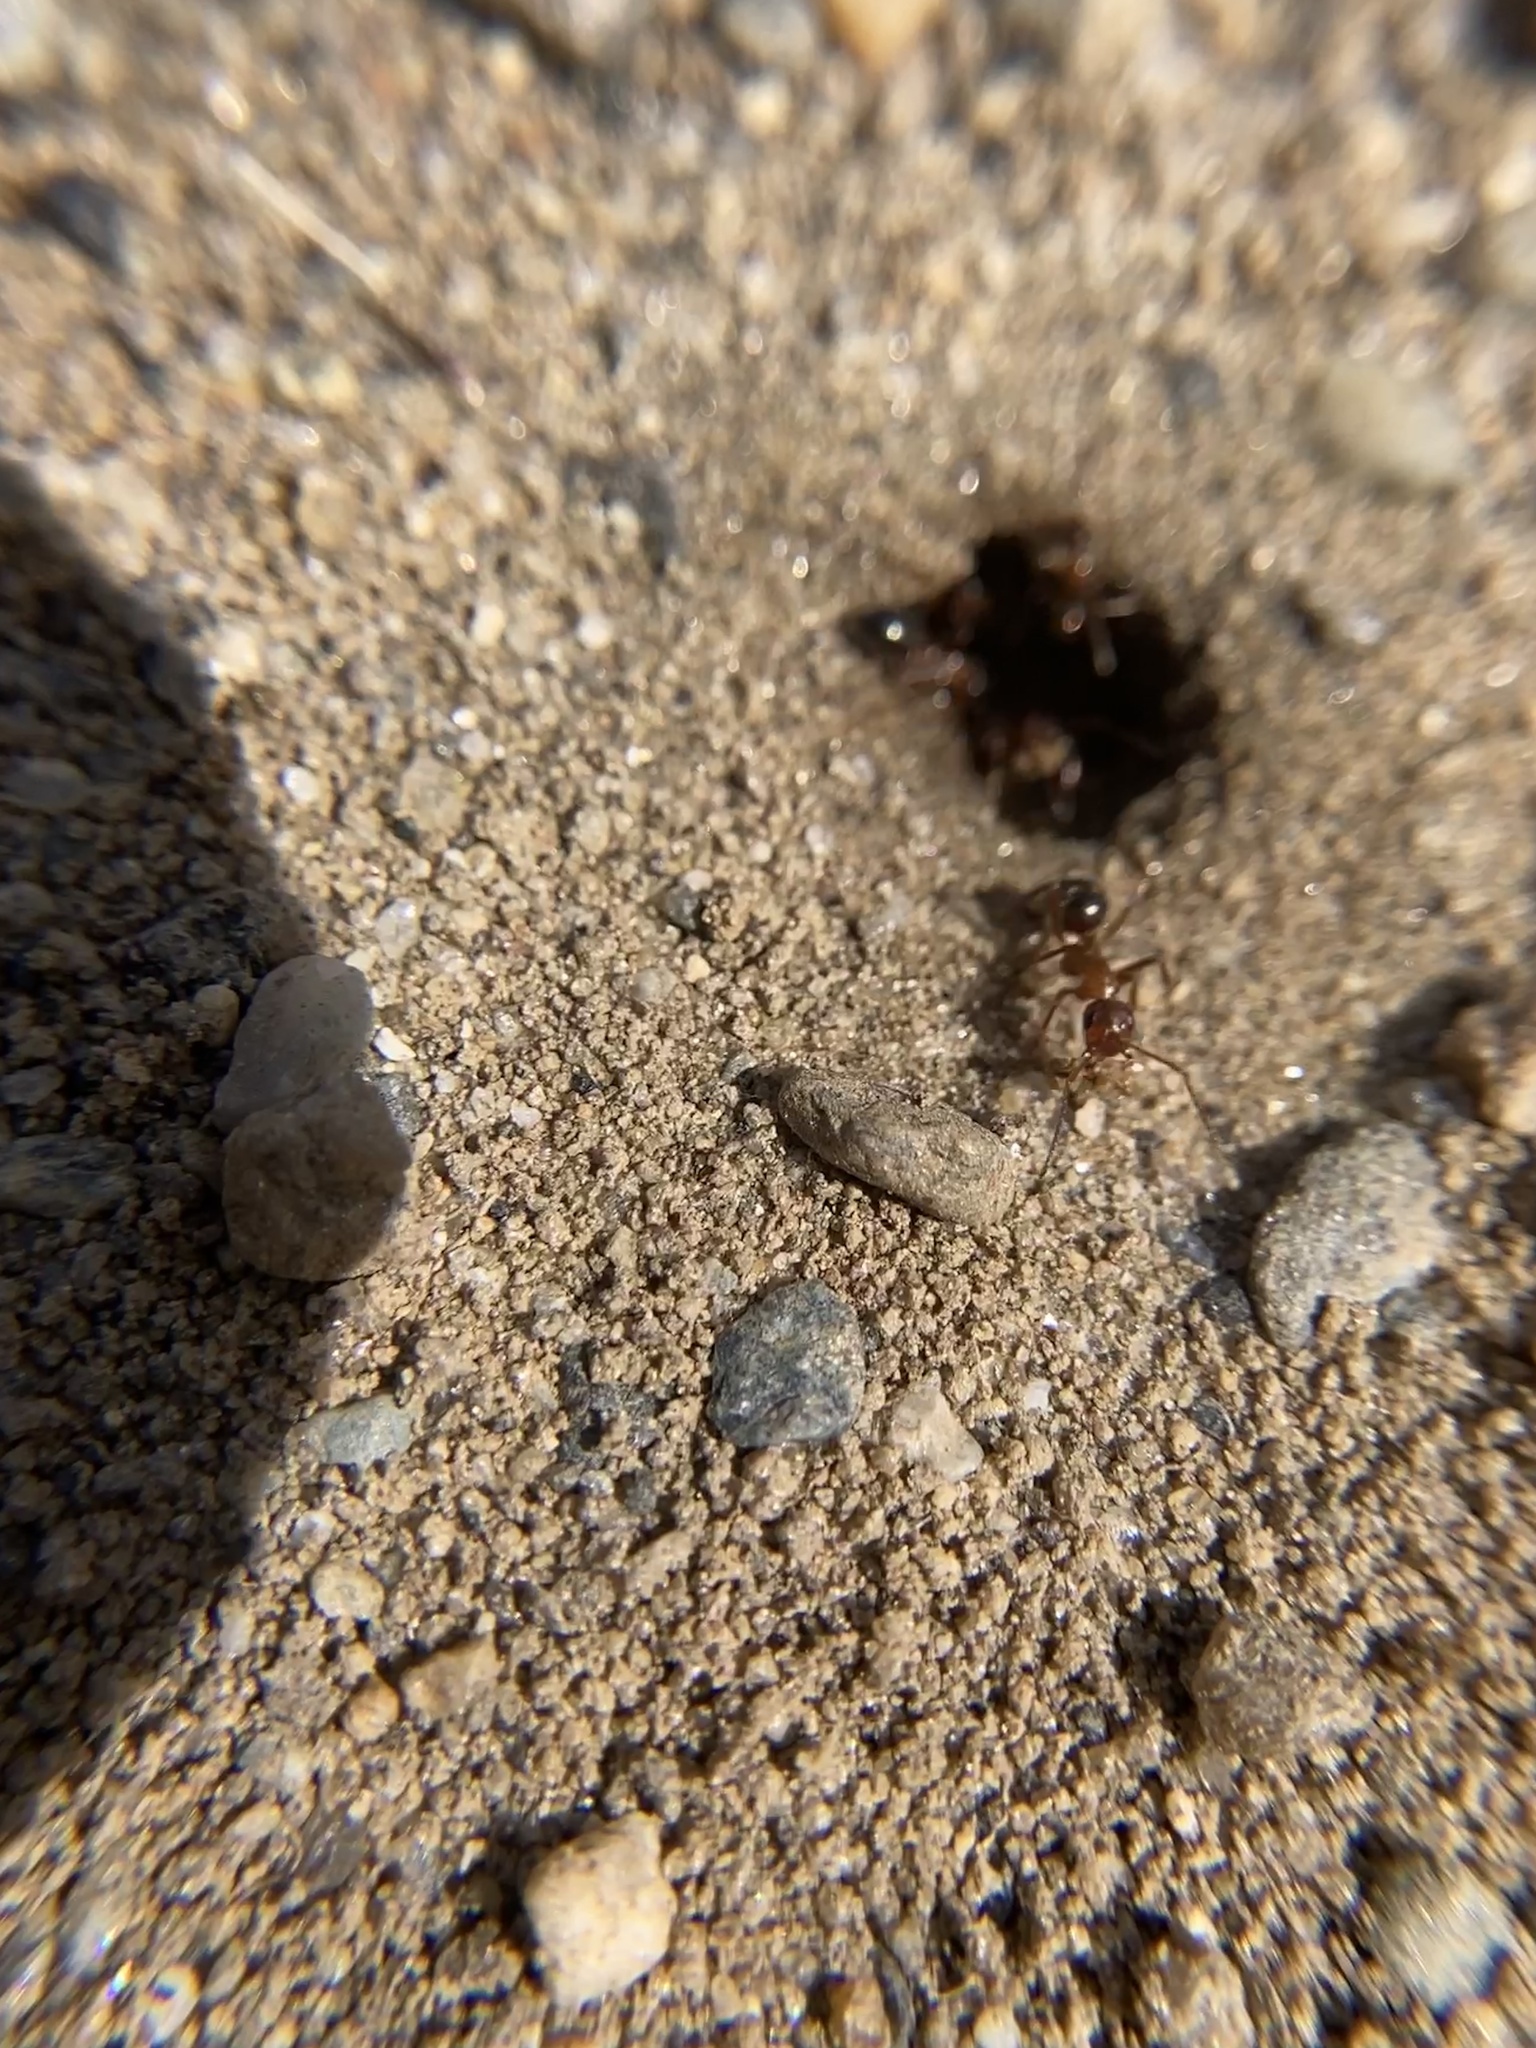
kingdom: Animalia
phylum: Arthropoda
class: Insecta
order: Hymenoptera
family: Formicidae
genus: Formica
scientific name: Formica
